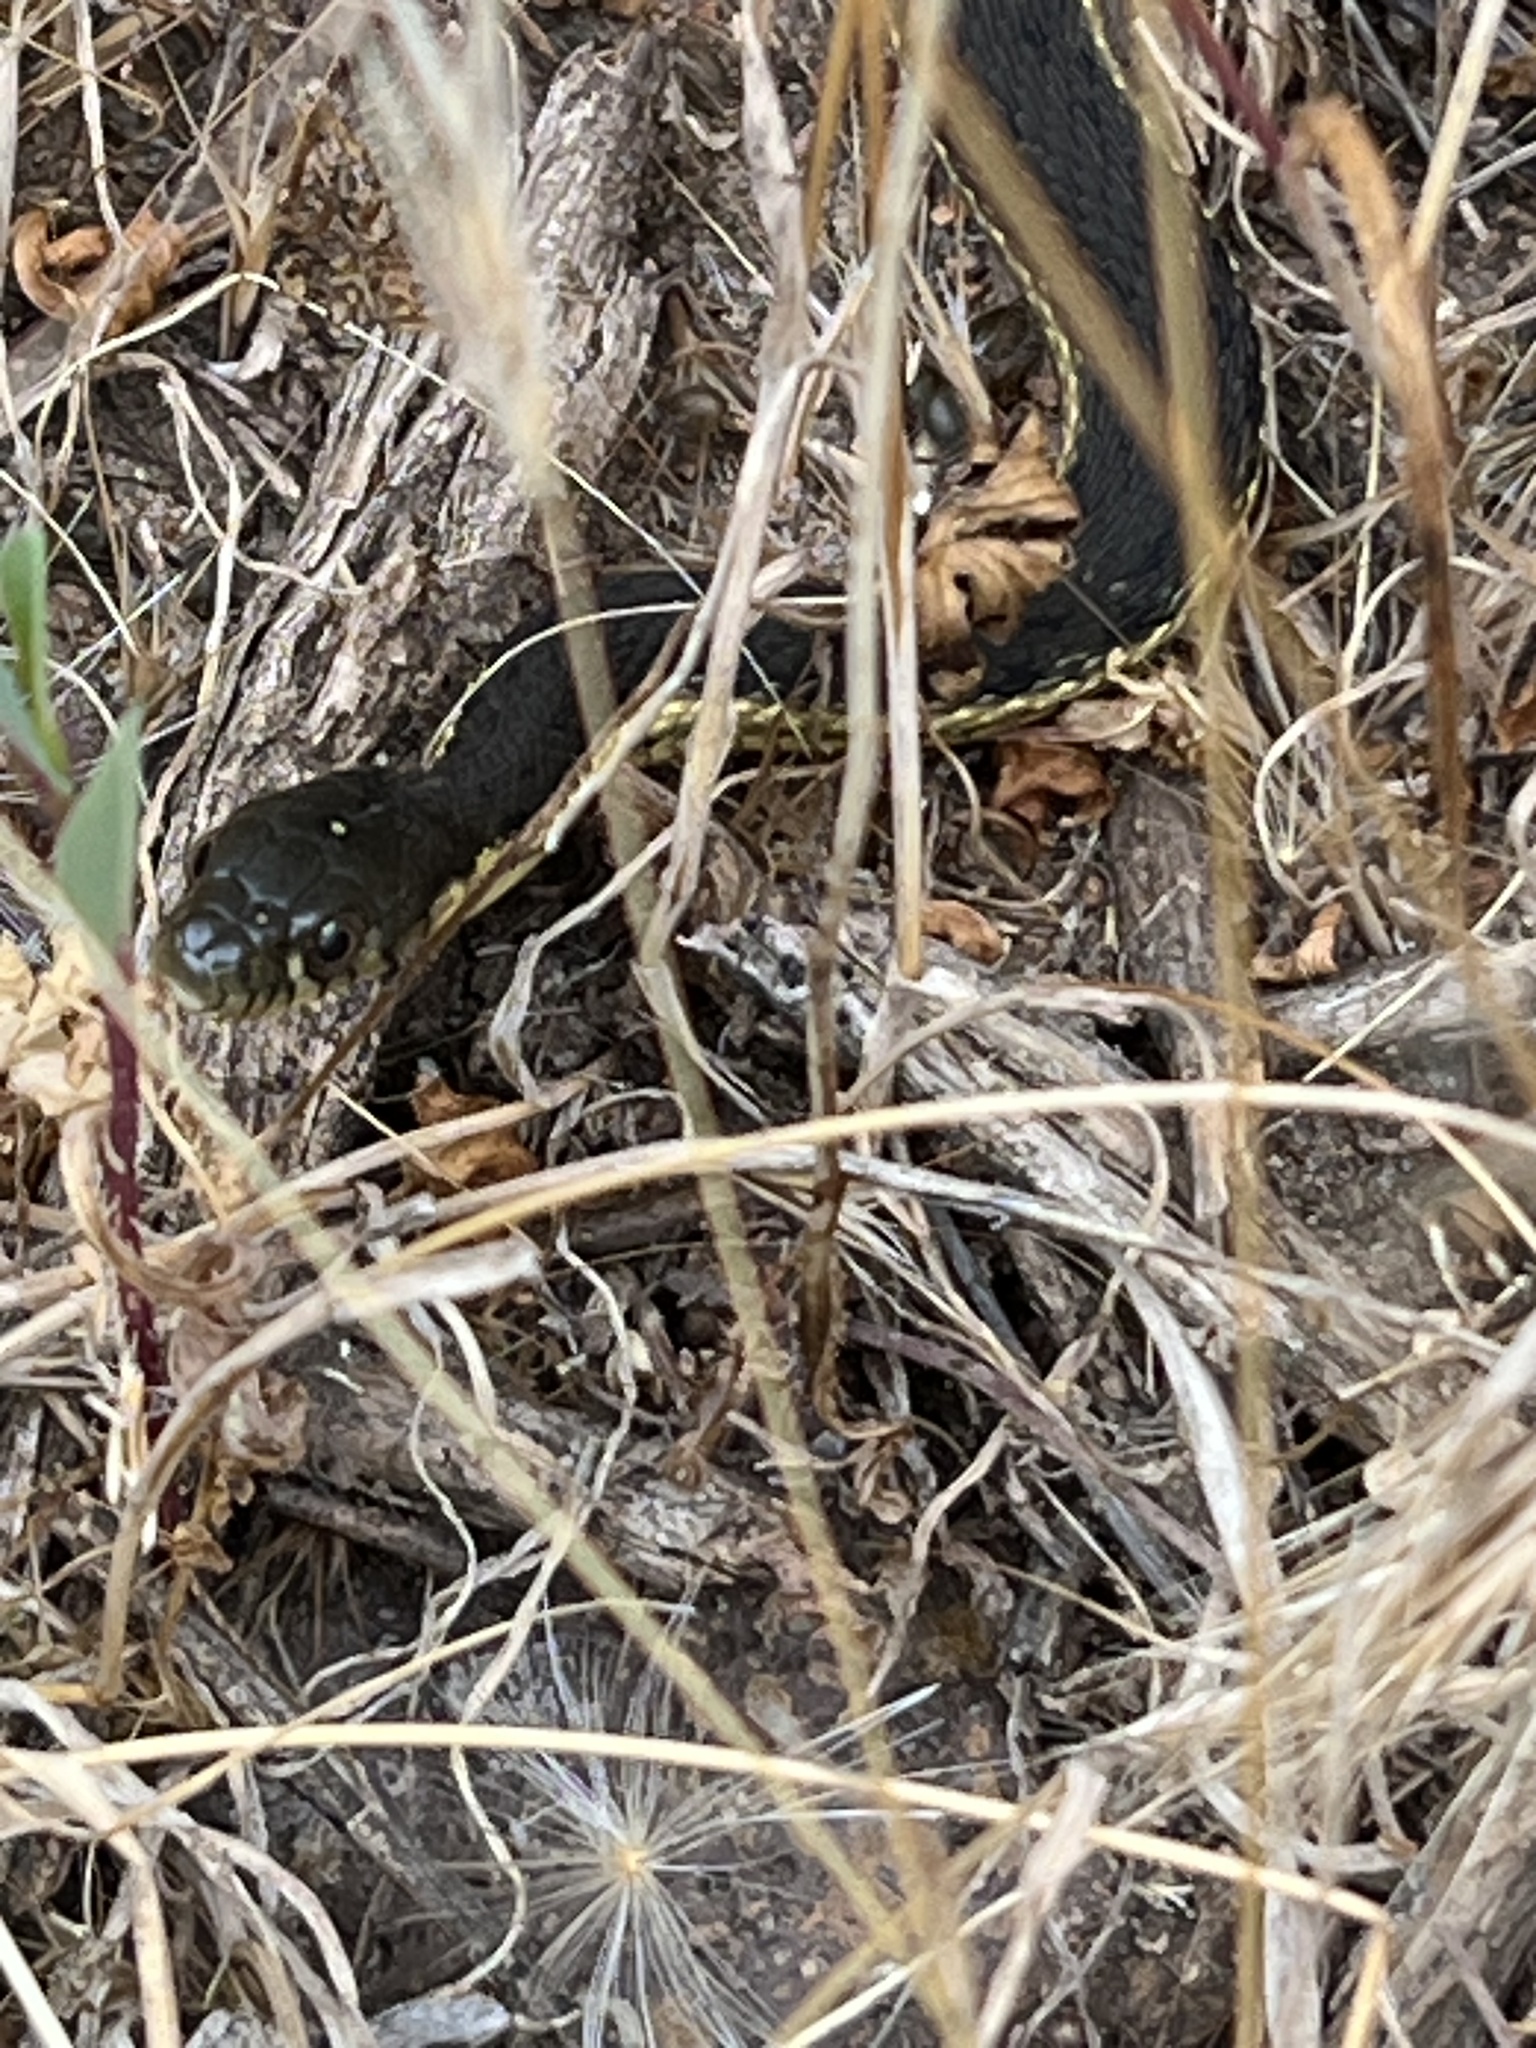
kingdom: Animalia
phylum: Chordata
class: Squamata
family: Colubridae
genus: Thamnophis
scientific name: Thamnophis hammondii
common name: Two-striped garter snake
